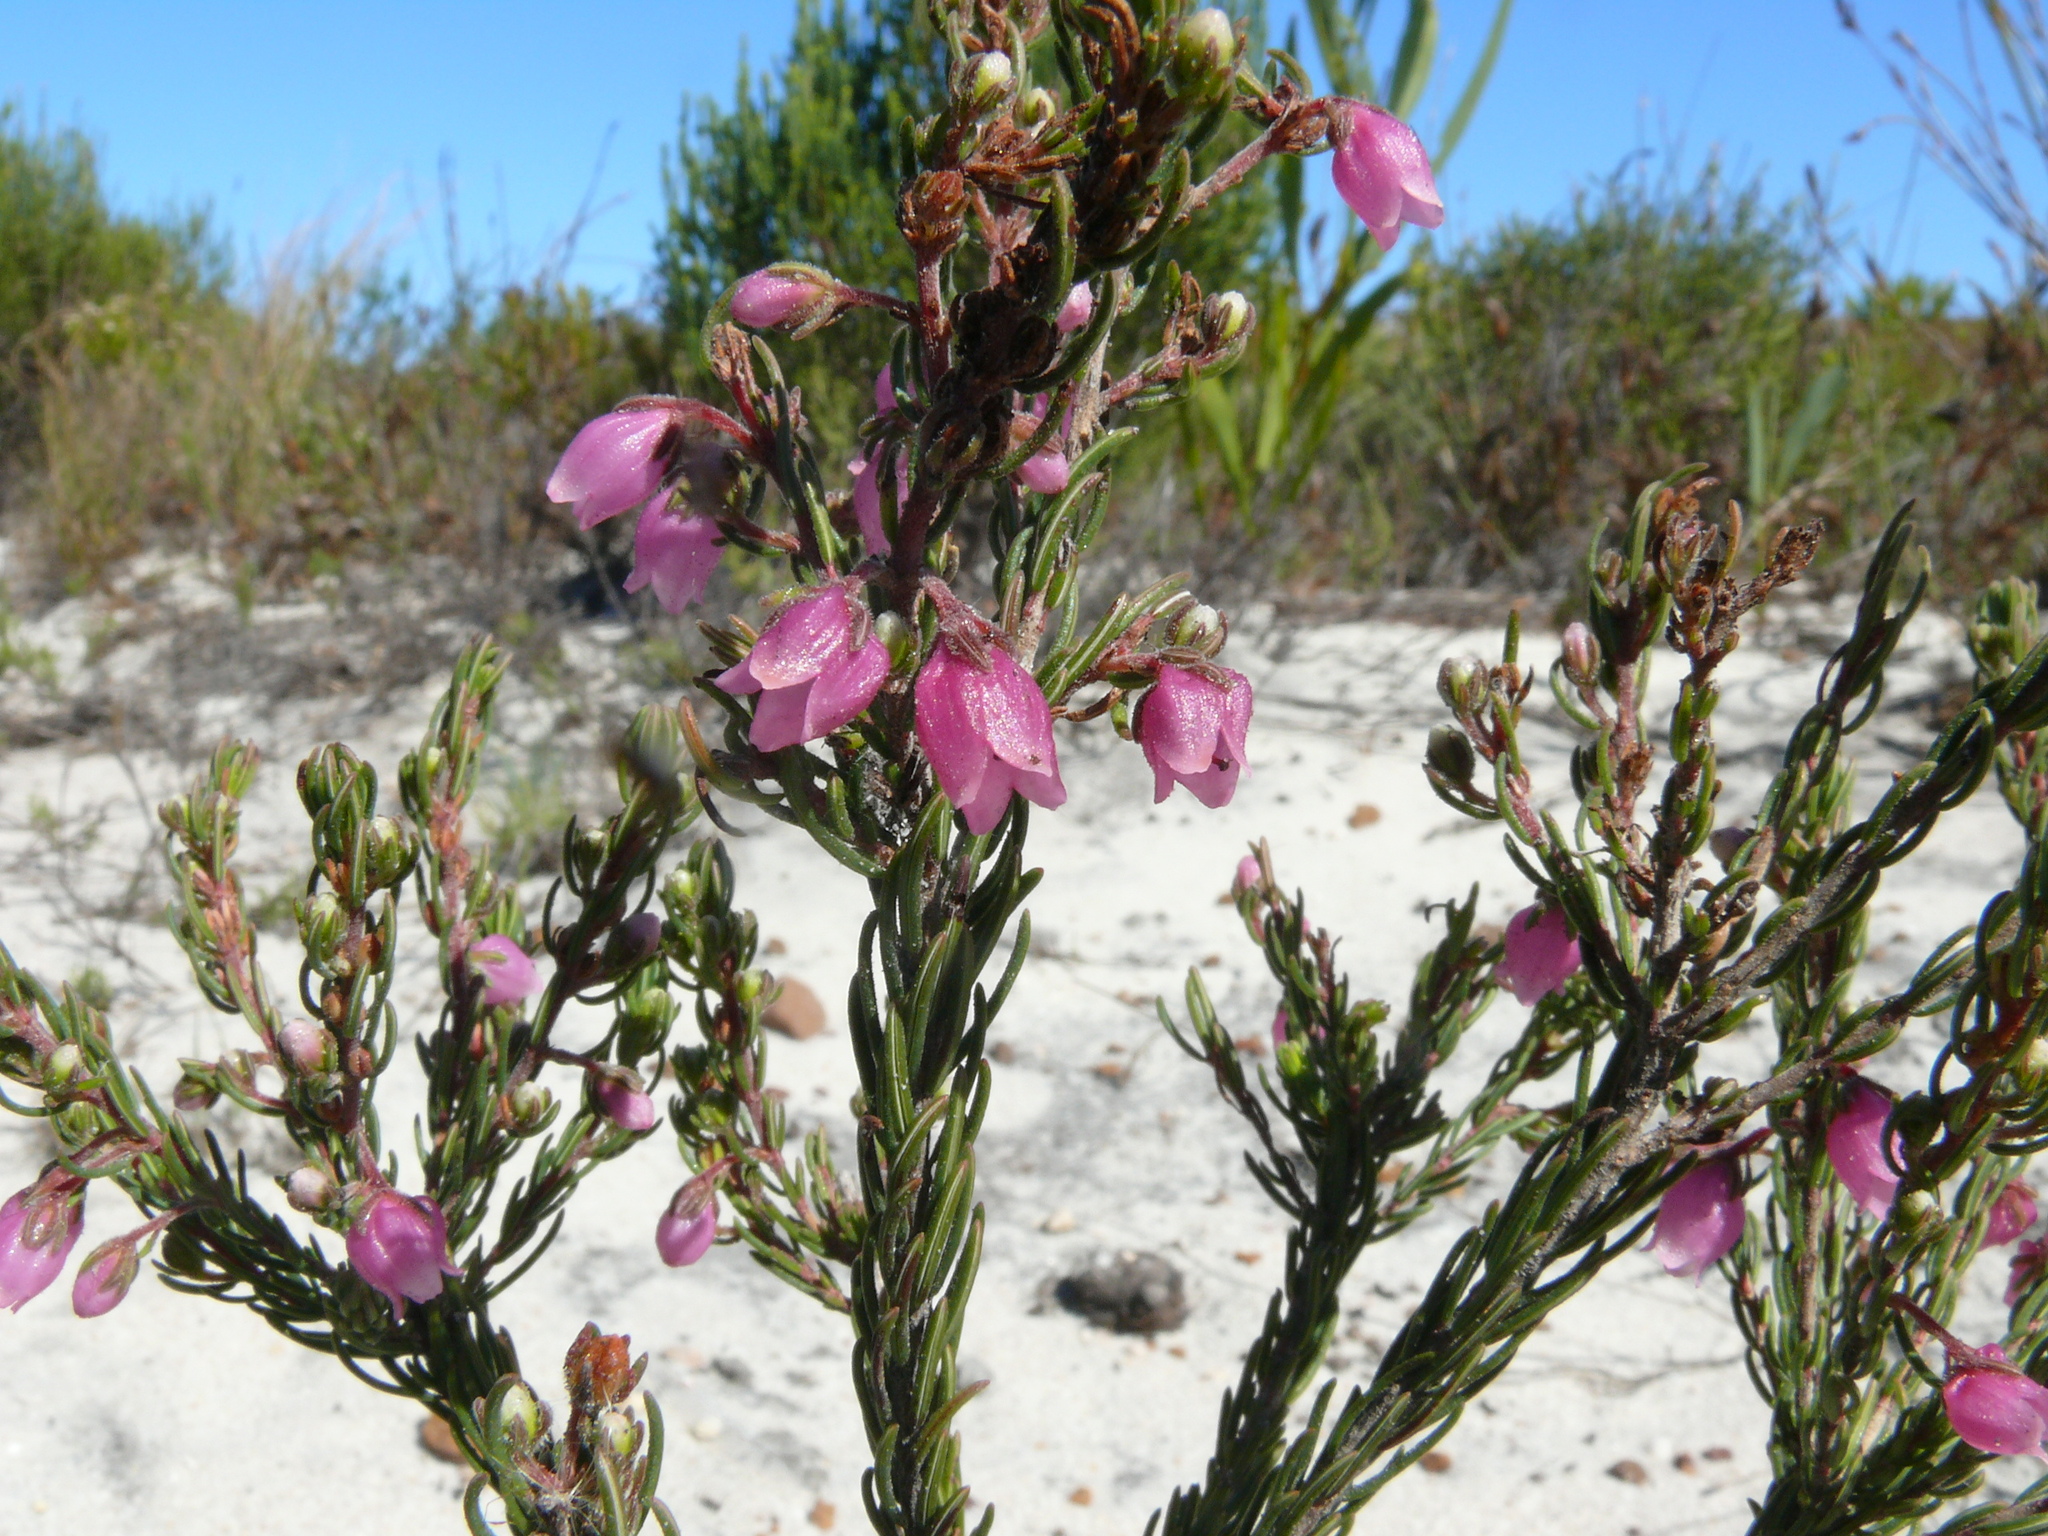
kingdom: Plantae
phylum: Tracheophyta
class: Magnoliopsida
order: Ericales
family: Ericaceae
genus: Erica
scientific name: Erica viscaria
